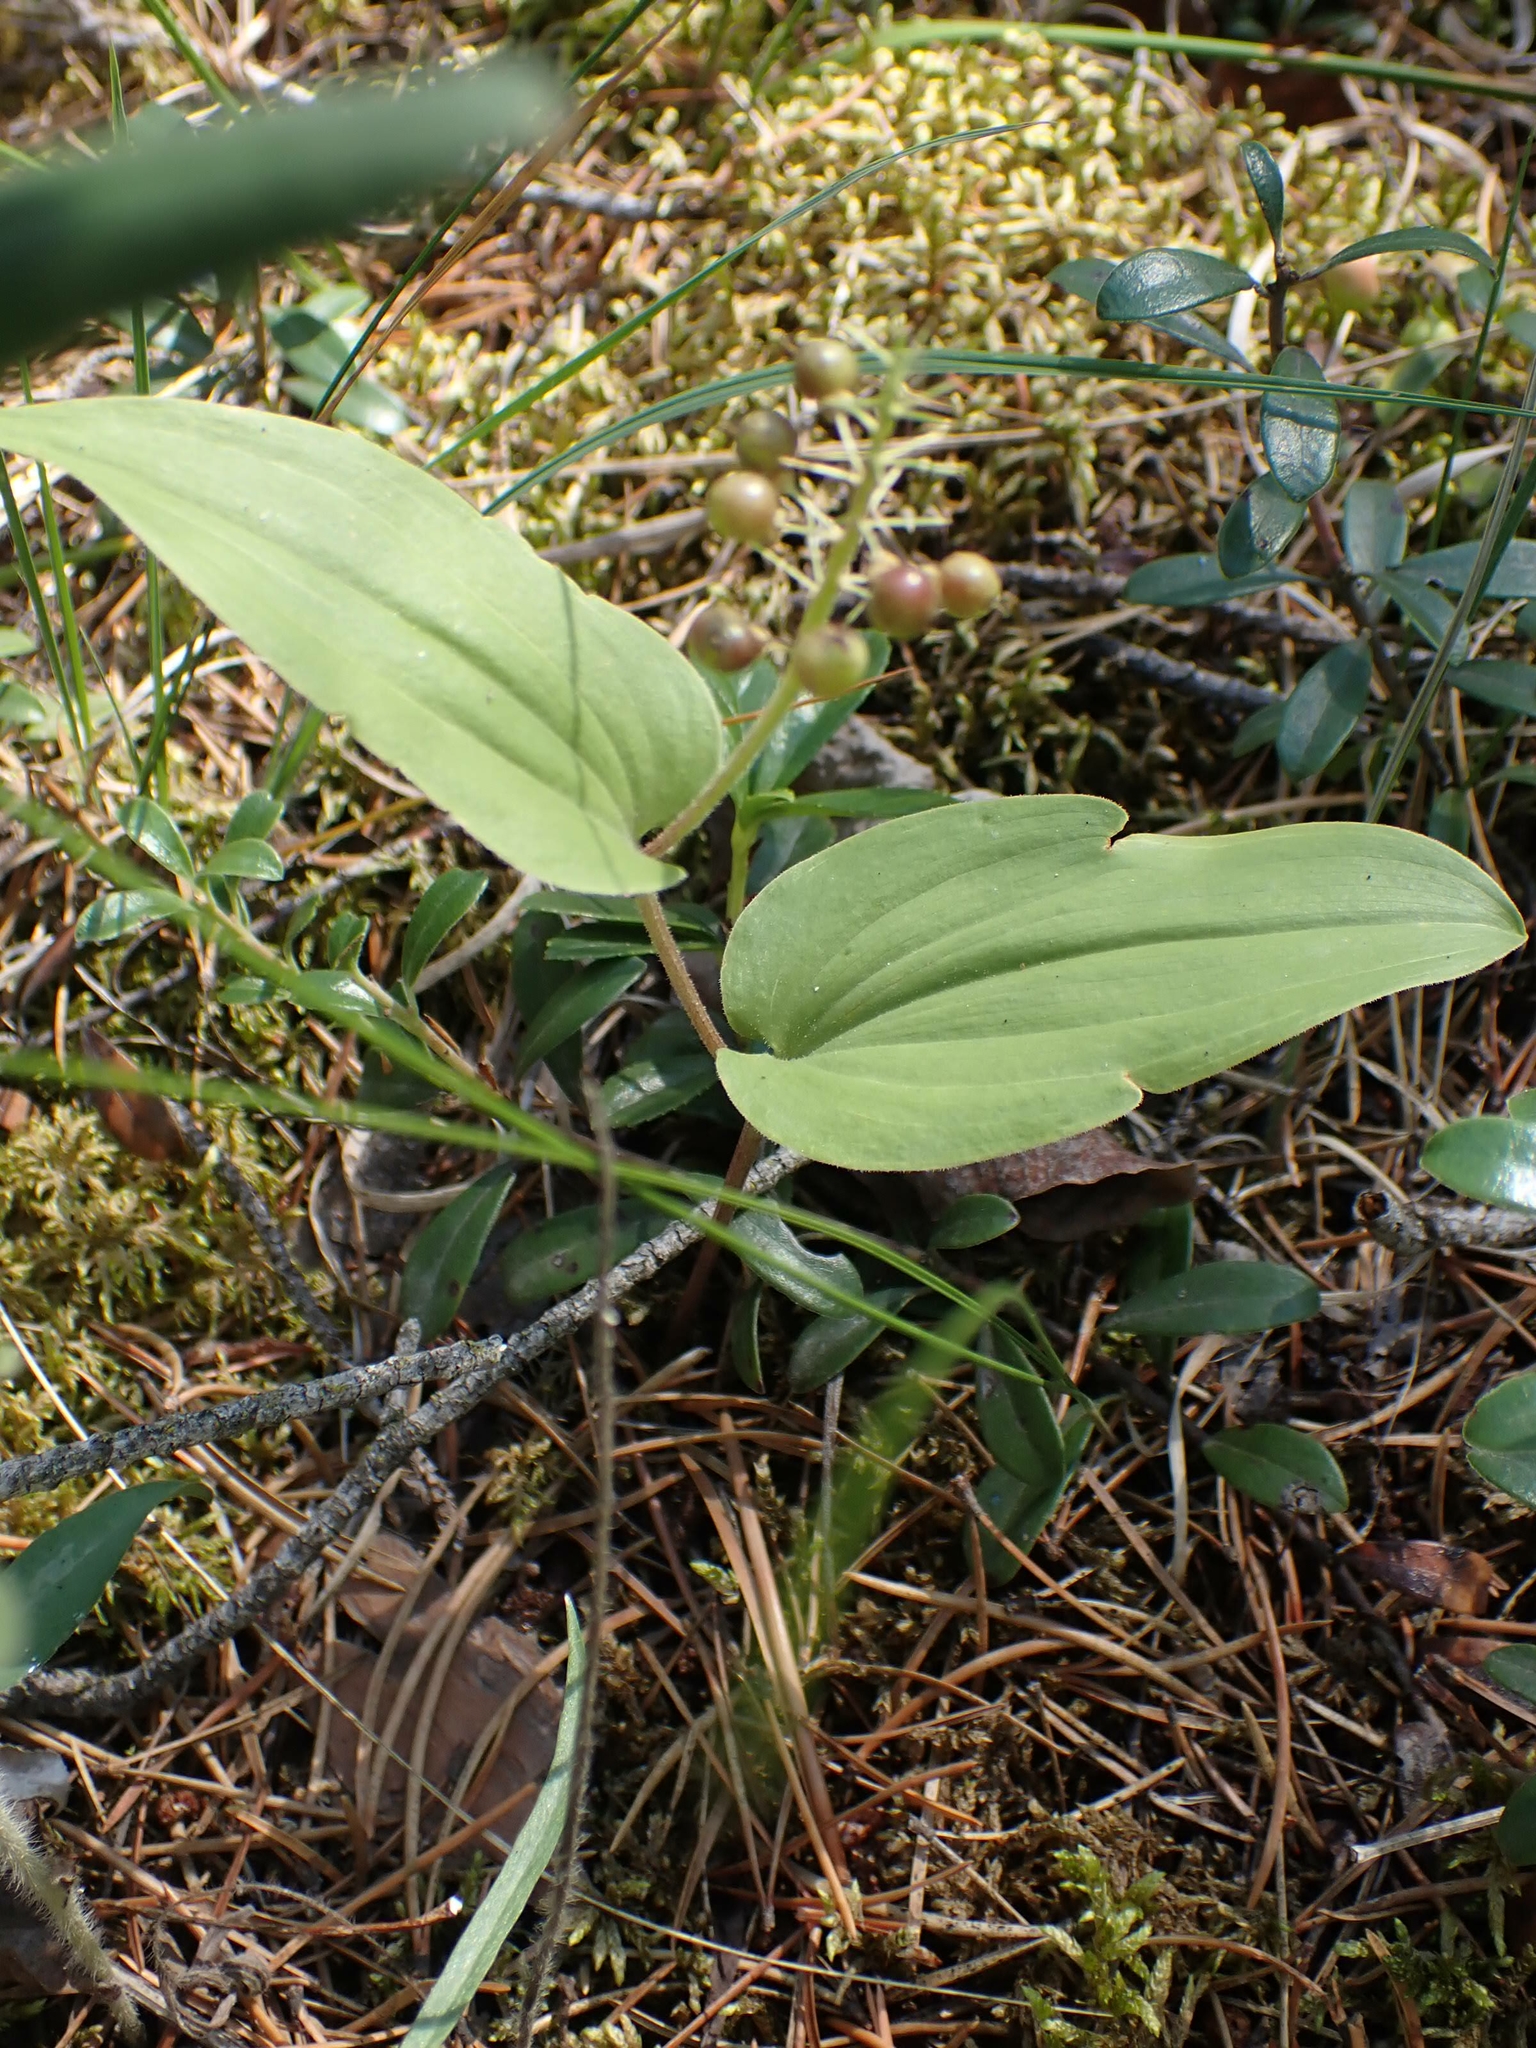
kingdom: Plantae
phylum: Tracheophyta
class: Liliopsida
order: Asparagales
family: Asparagaceae
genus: Maianthemum
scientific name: Maianthemum canadense
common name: False lily-of-the-valley
